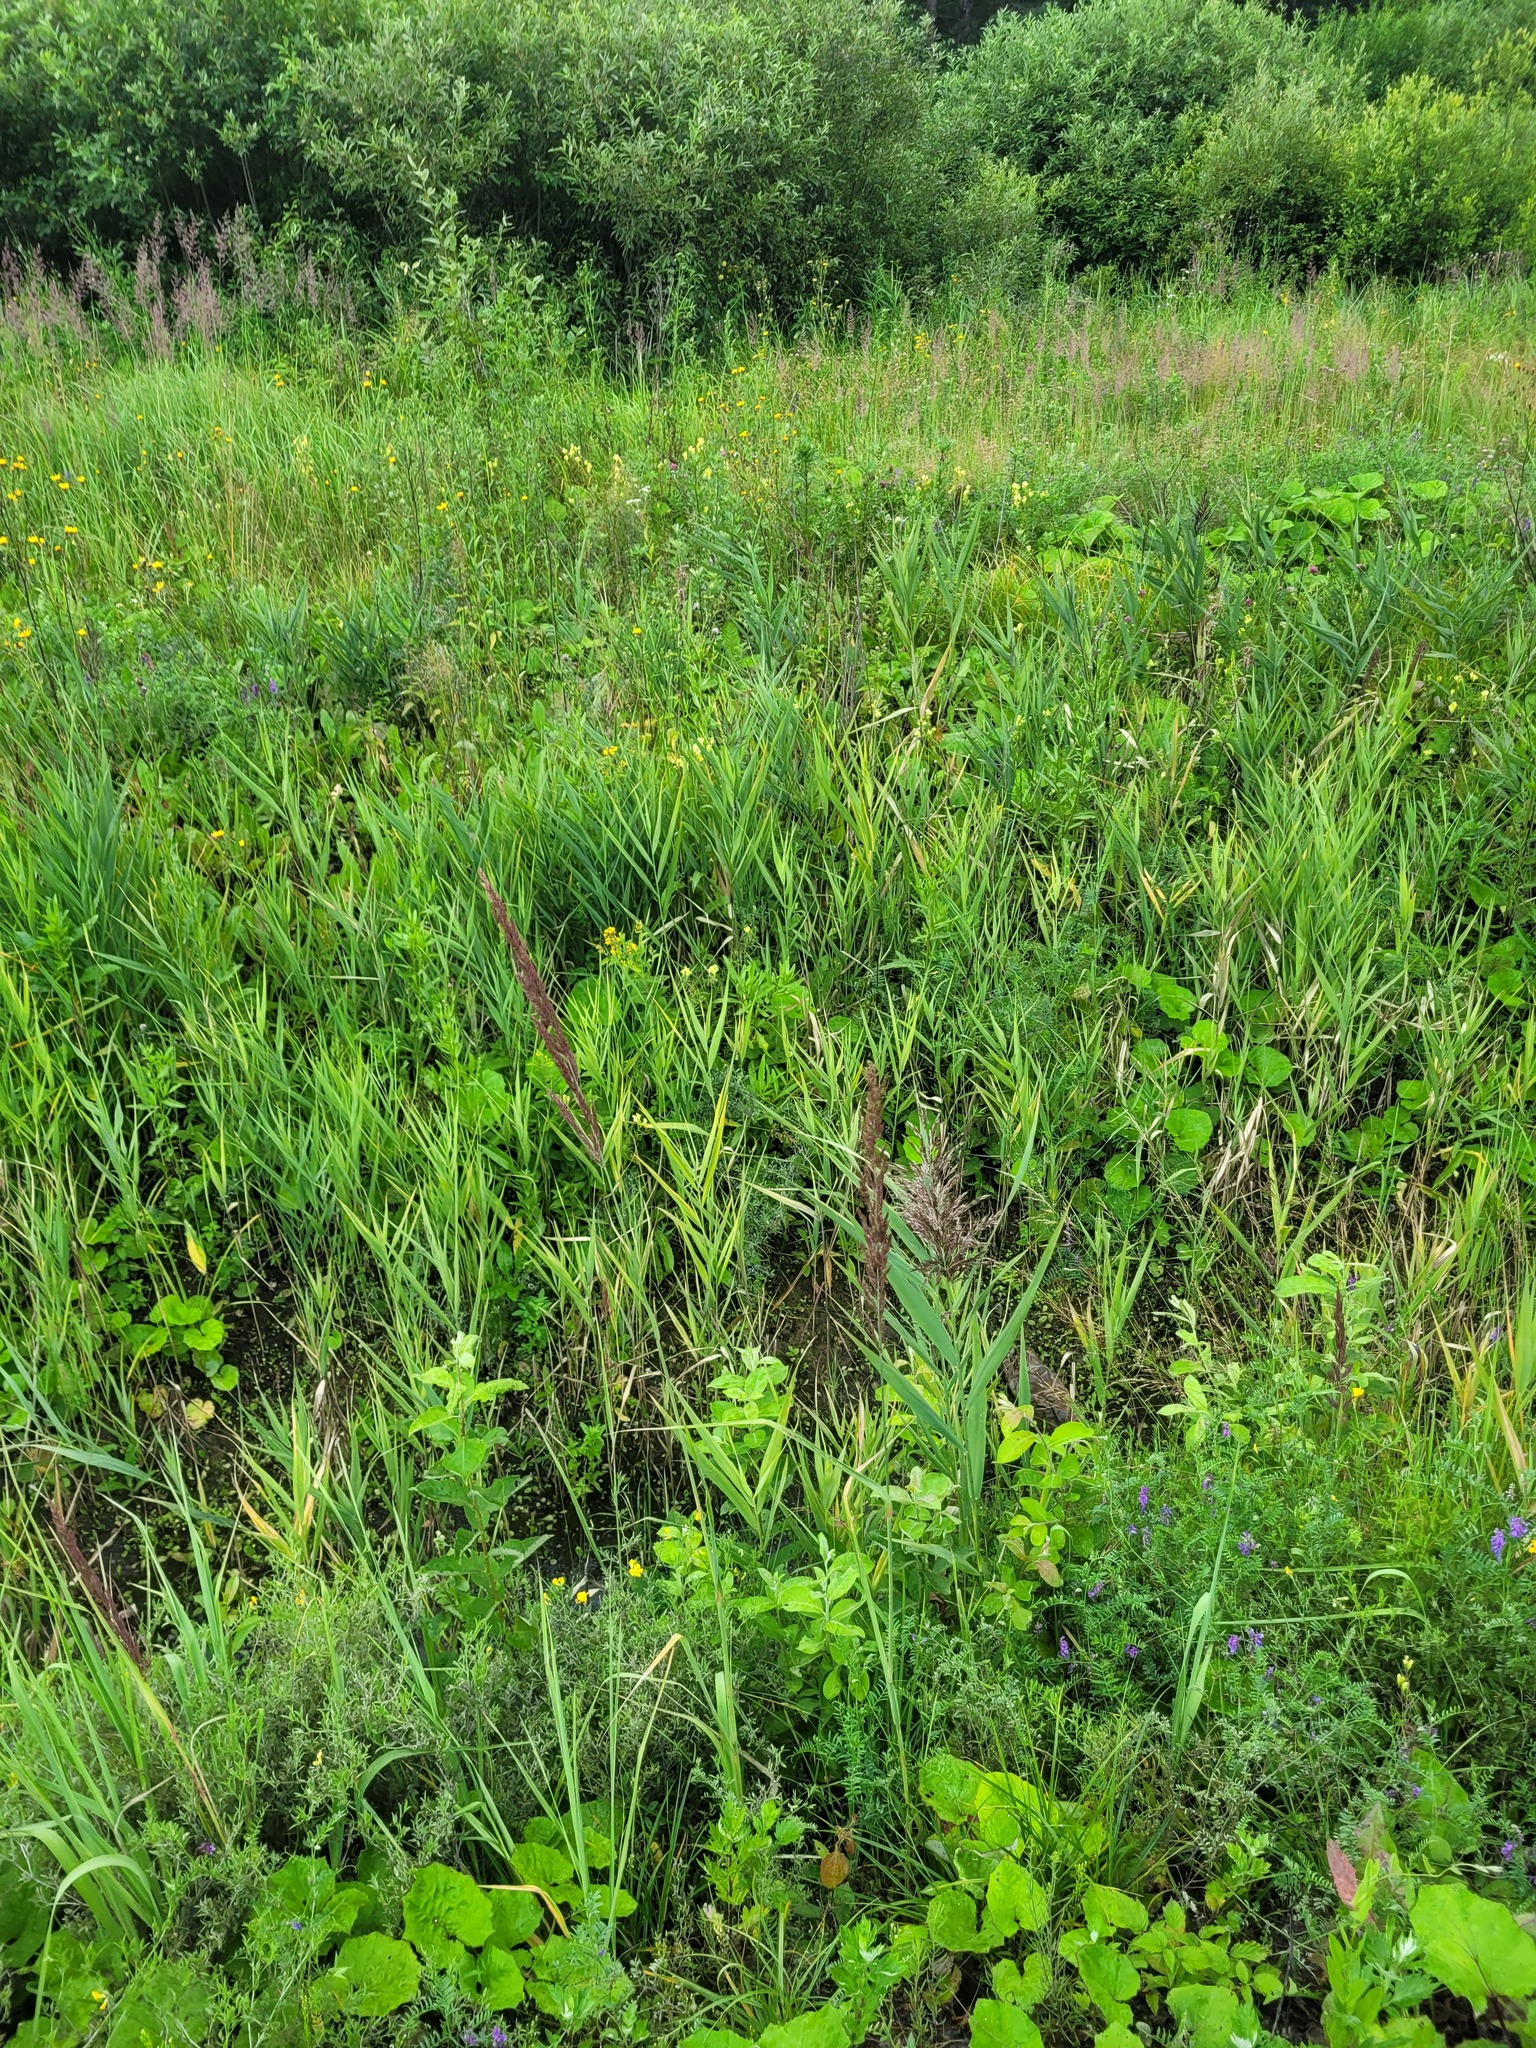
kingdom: Plantae
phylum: Tracheophyta
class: Liliopsida
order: Poales
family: Poaceae
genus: Phragmites
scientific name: Phragmites australis
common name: Common reed
